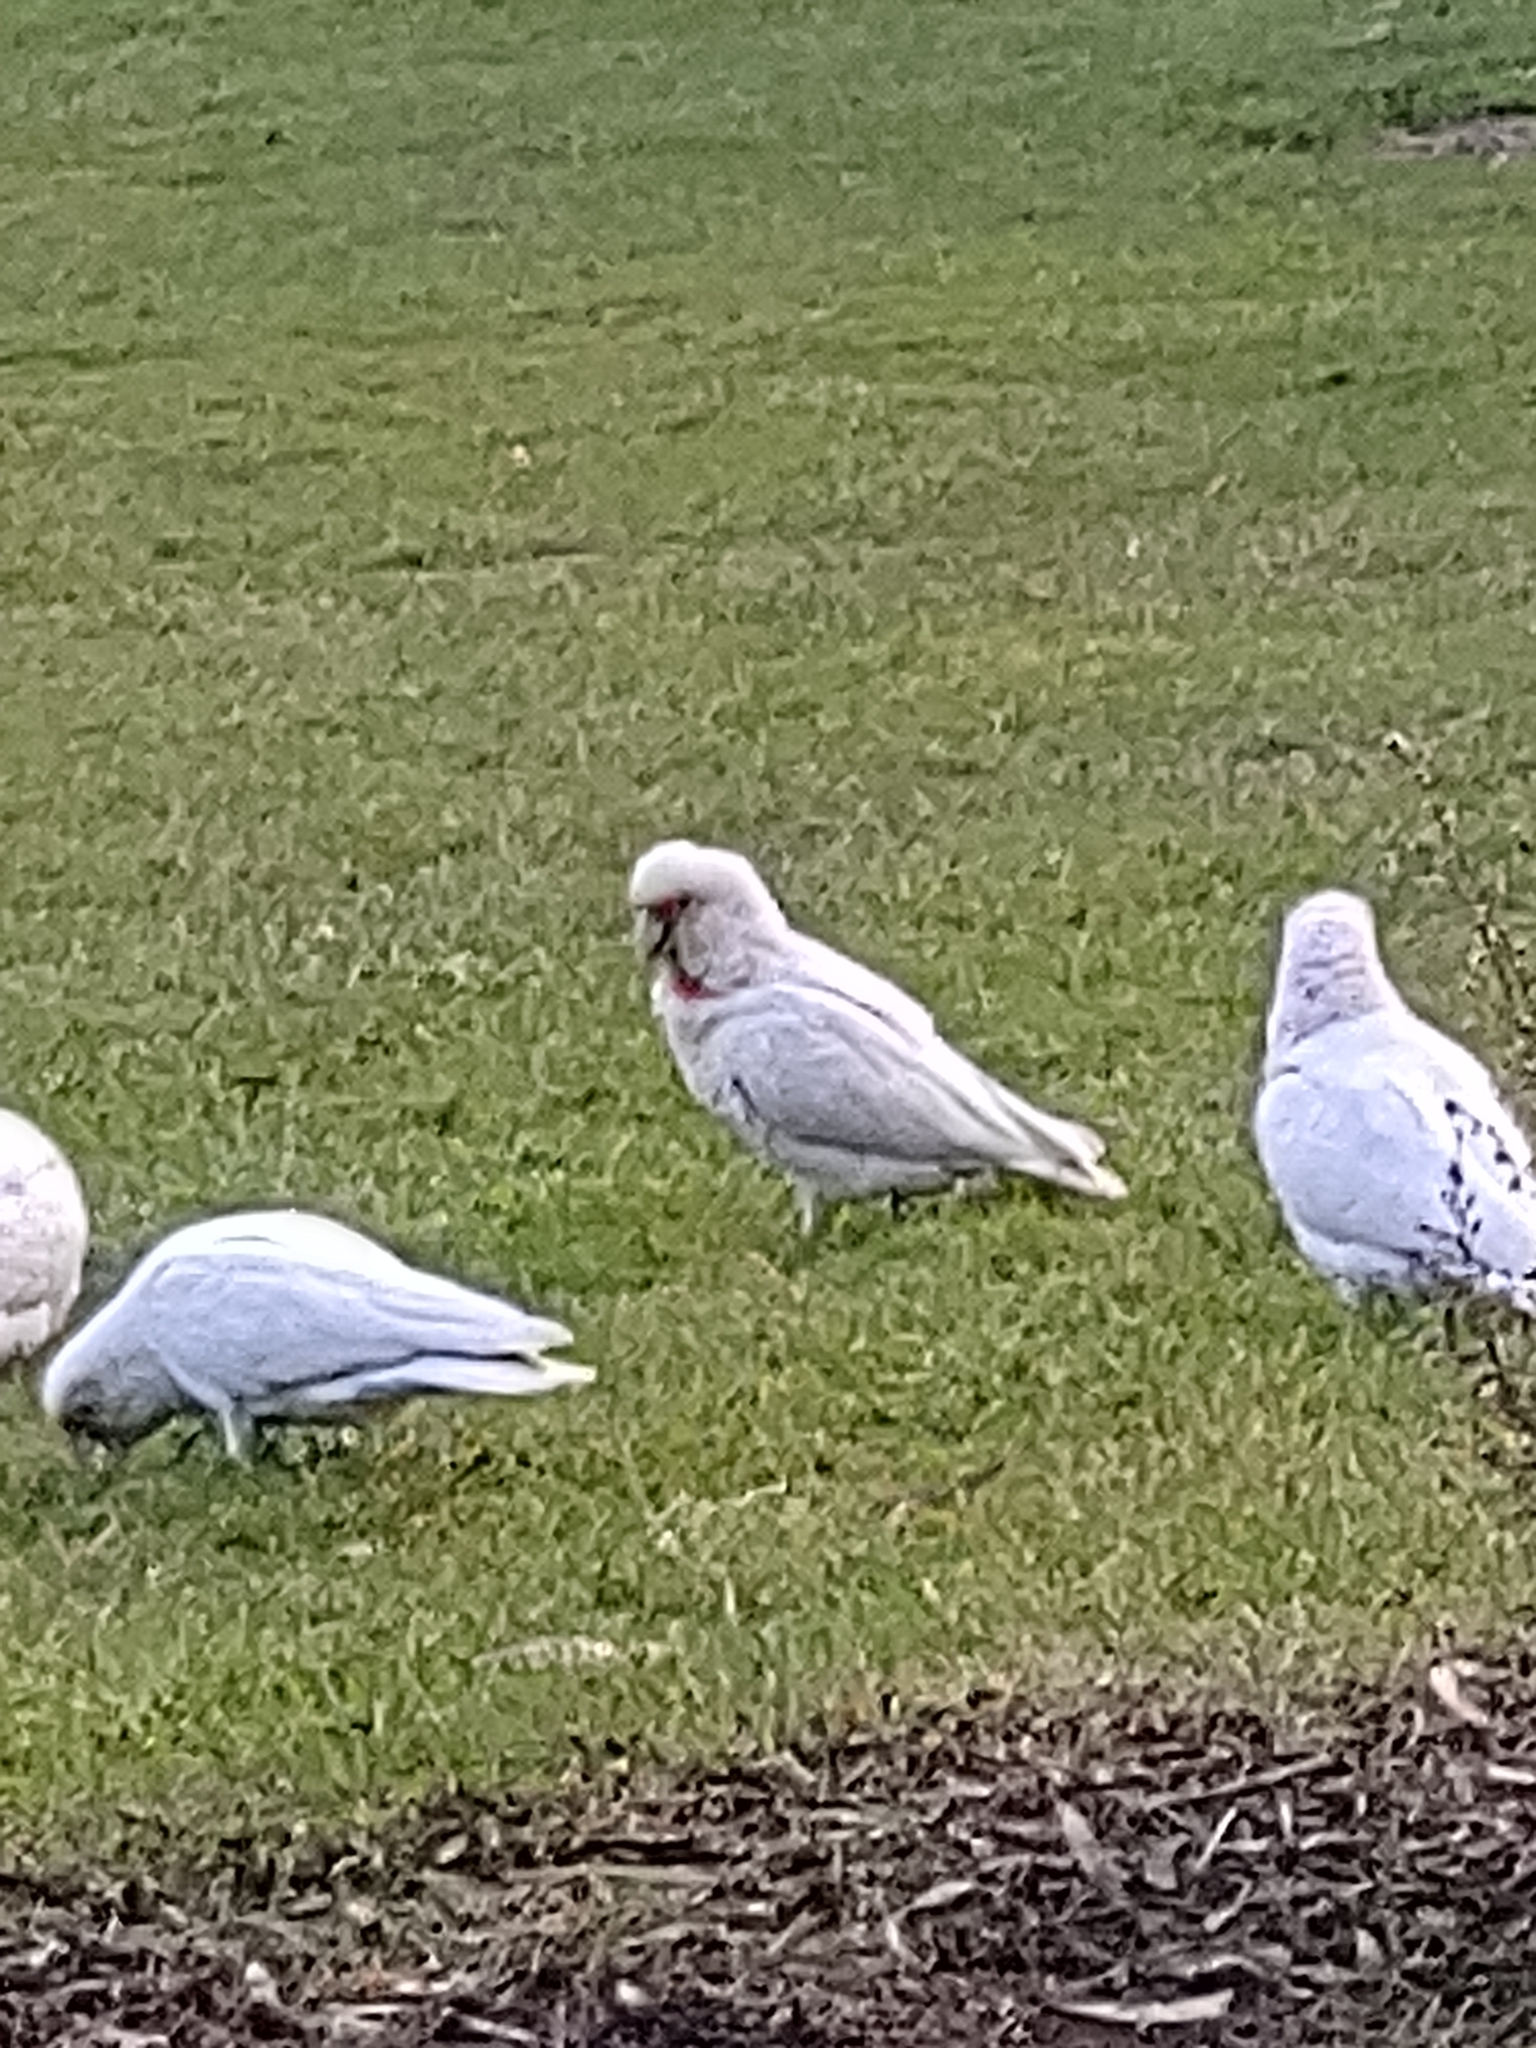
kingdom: Animalia
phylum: Chordata
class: Aves
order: Psittaciformes
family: Psittacidae
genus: Cacatua
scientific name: Cacatua sanguinea
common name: Little corella
